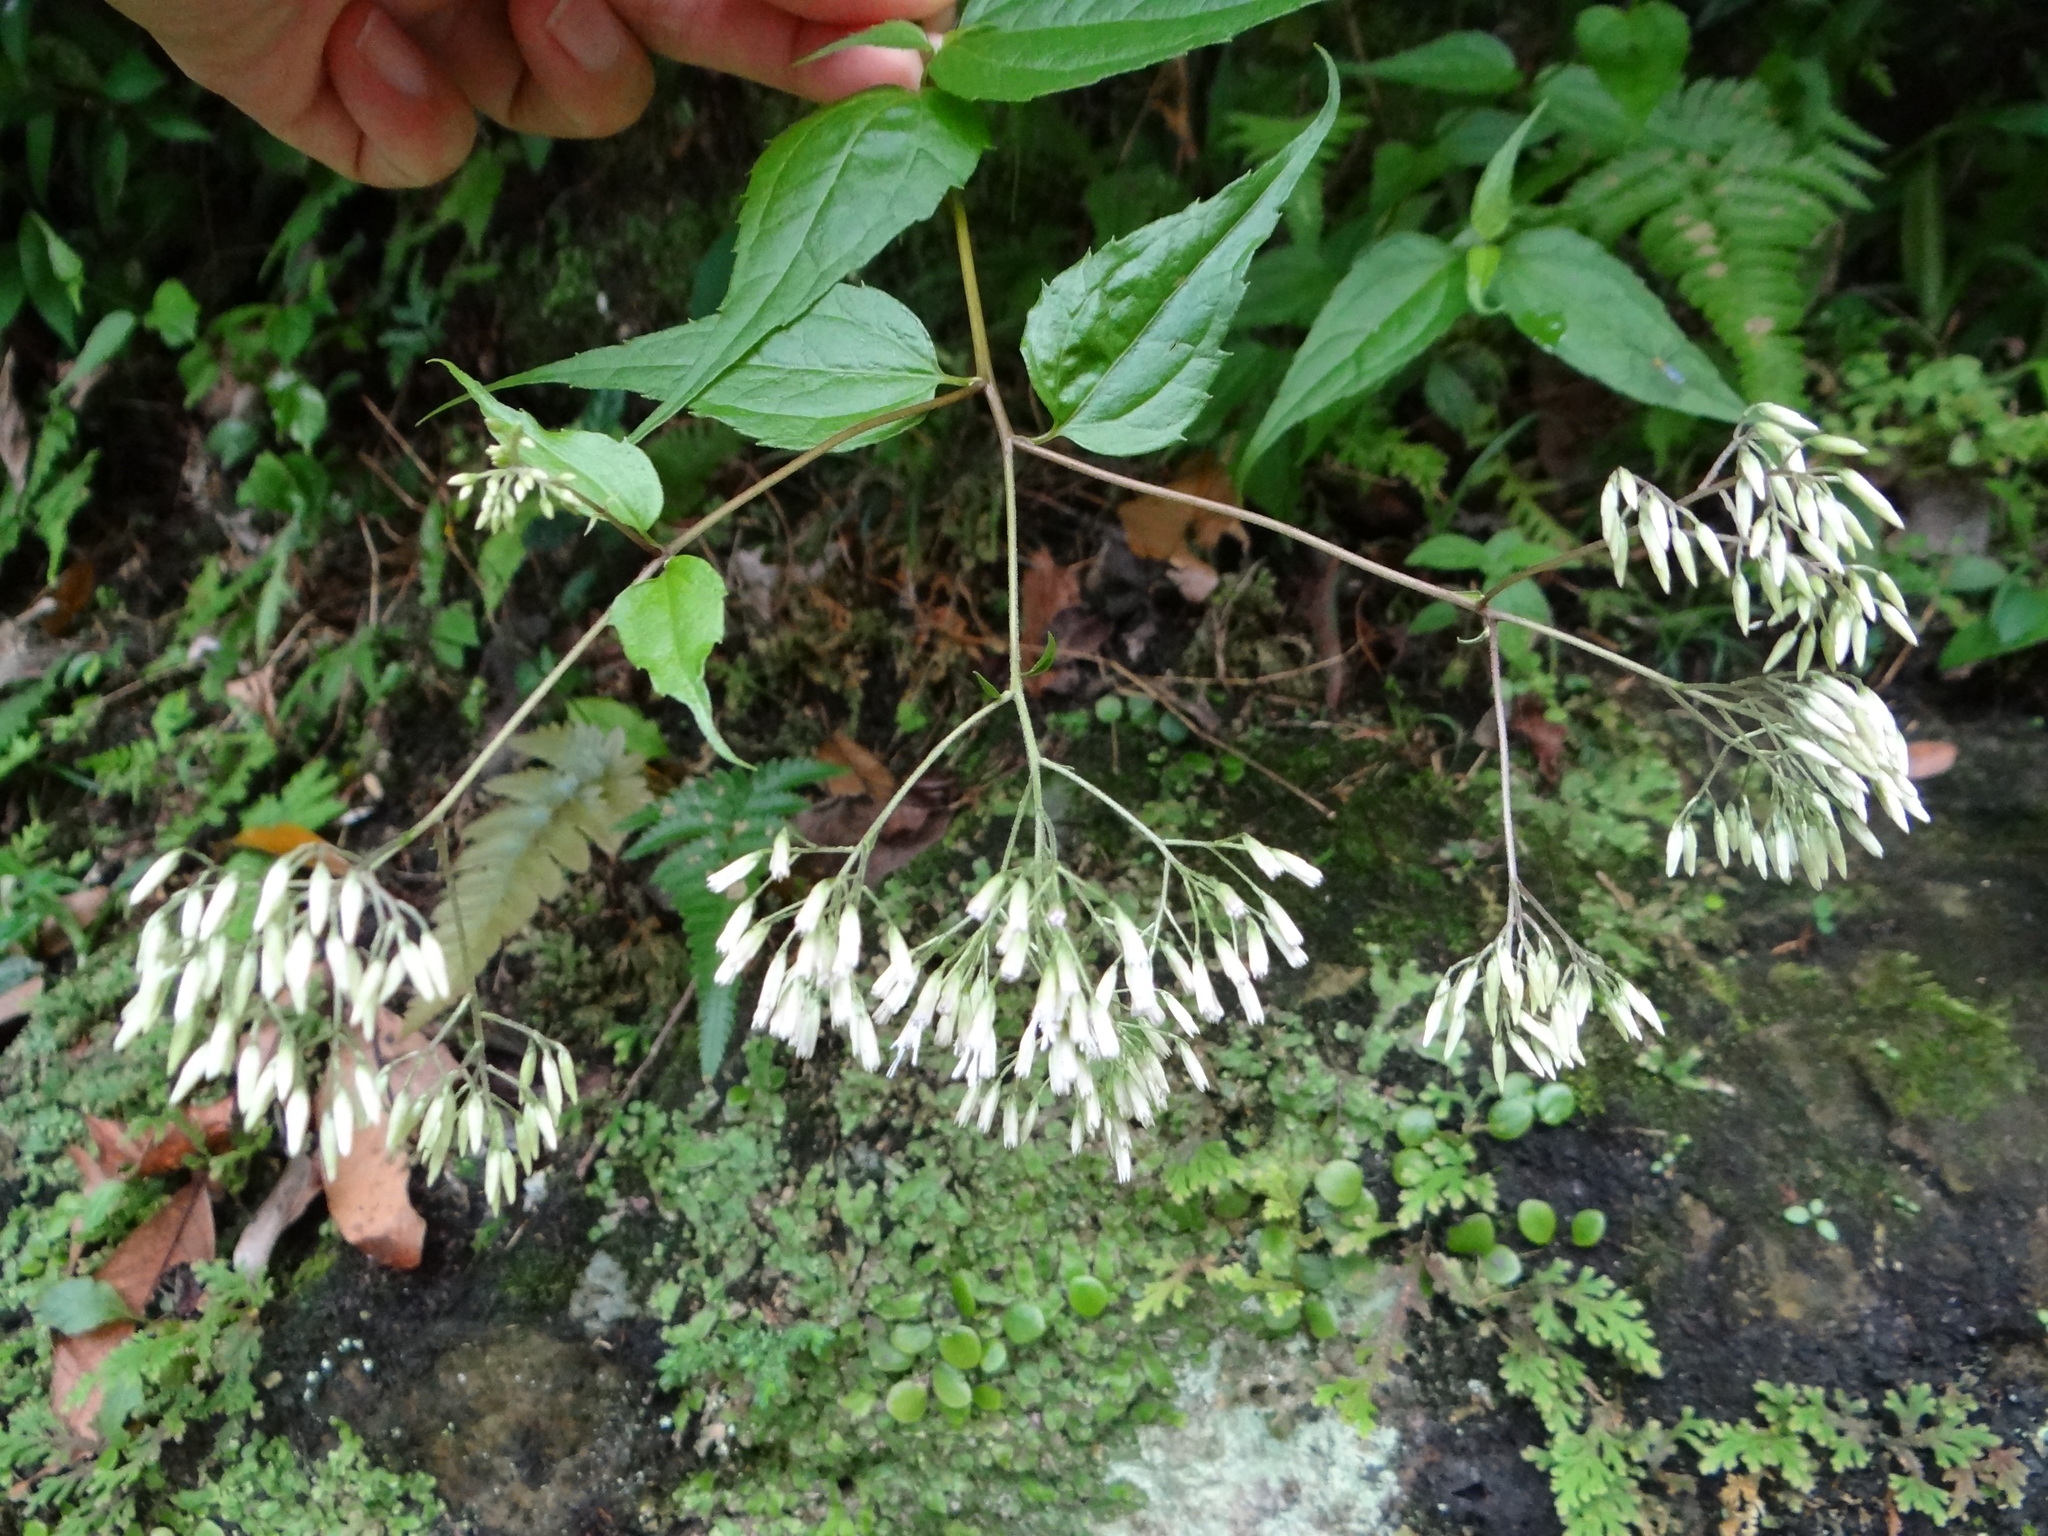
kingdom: Plantae
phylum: Tracheophyta
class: Magnoliopsida
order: Asterales
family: Asteraceae
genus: Eupatorium
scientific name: Eupatorium tashiroi
